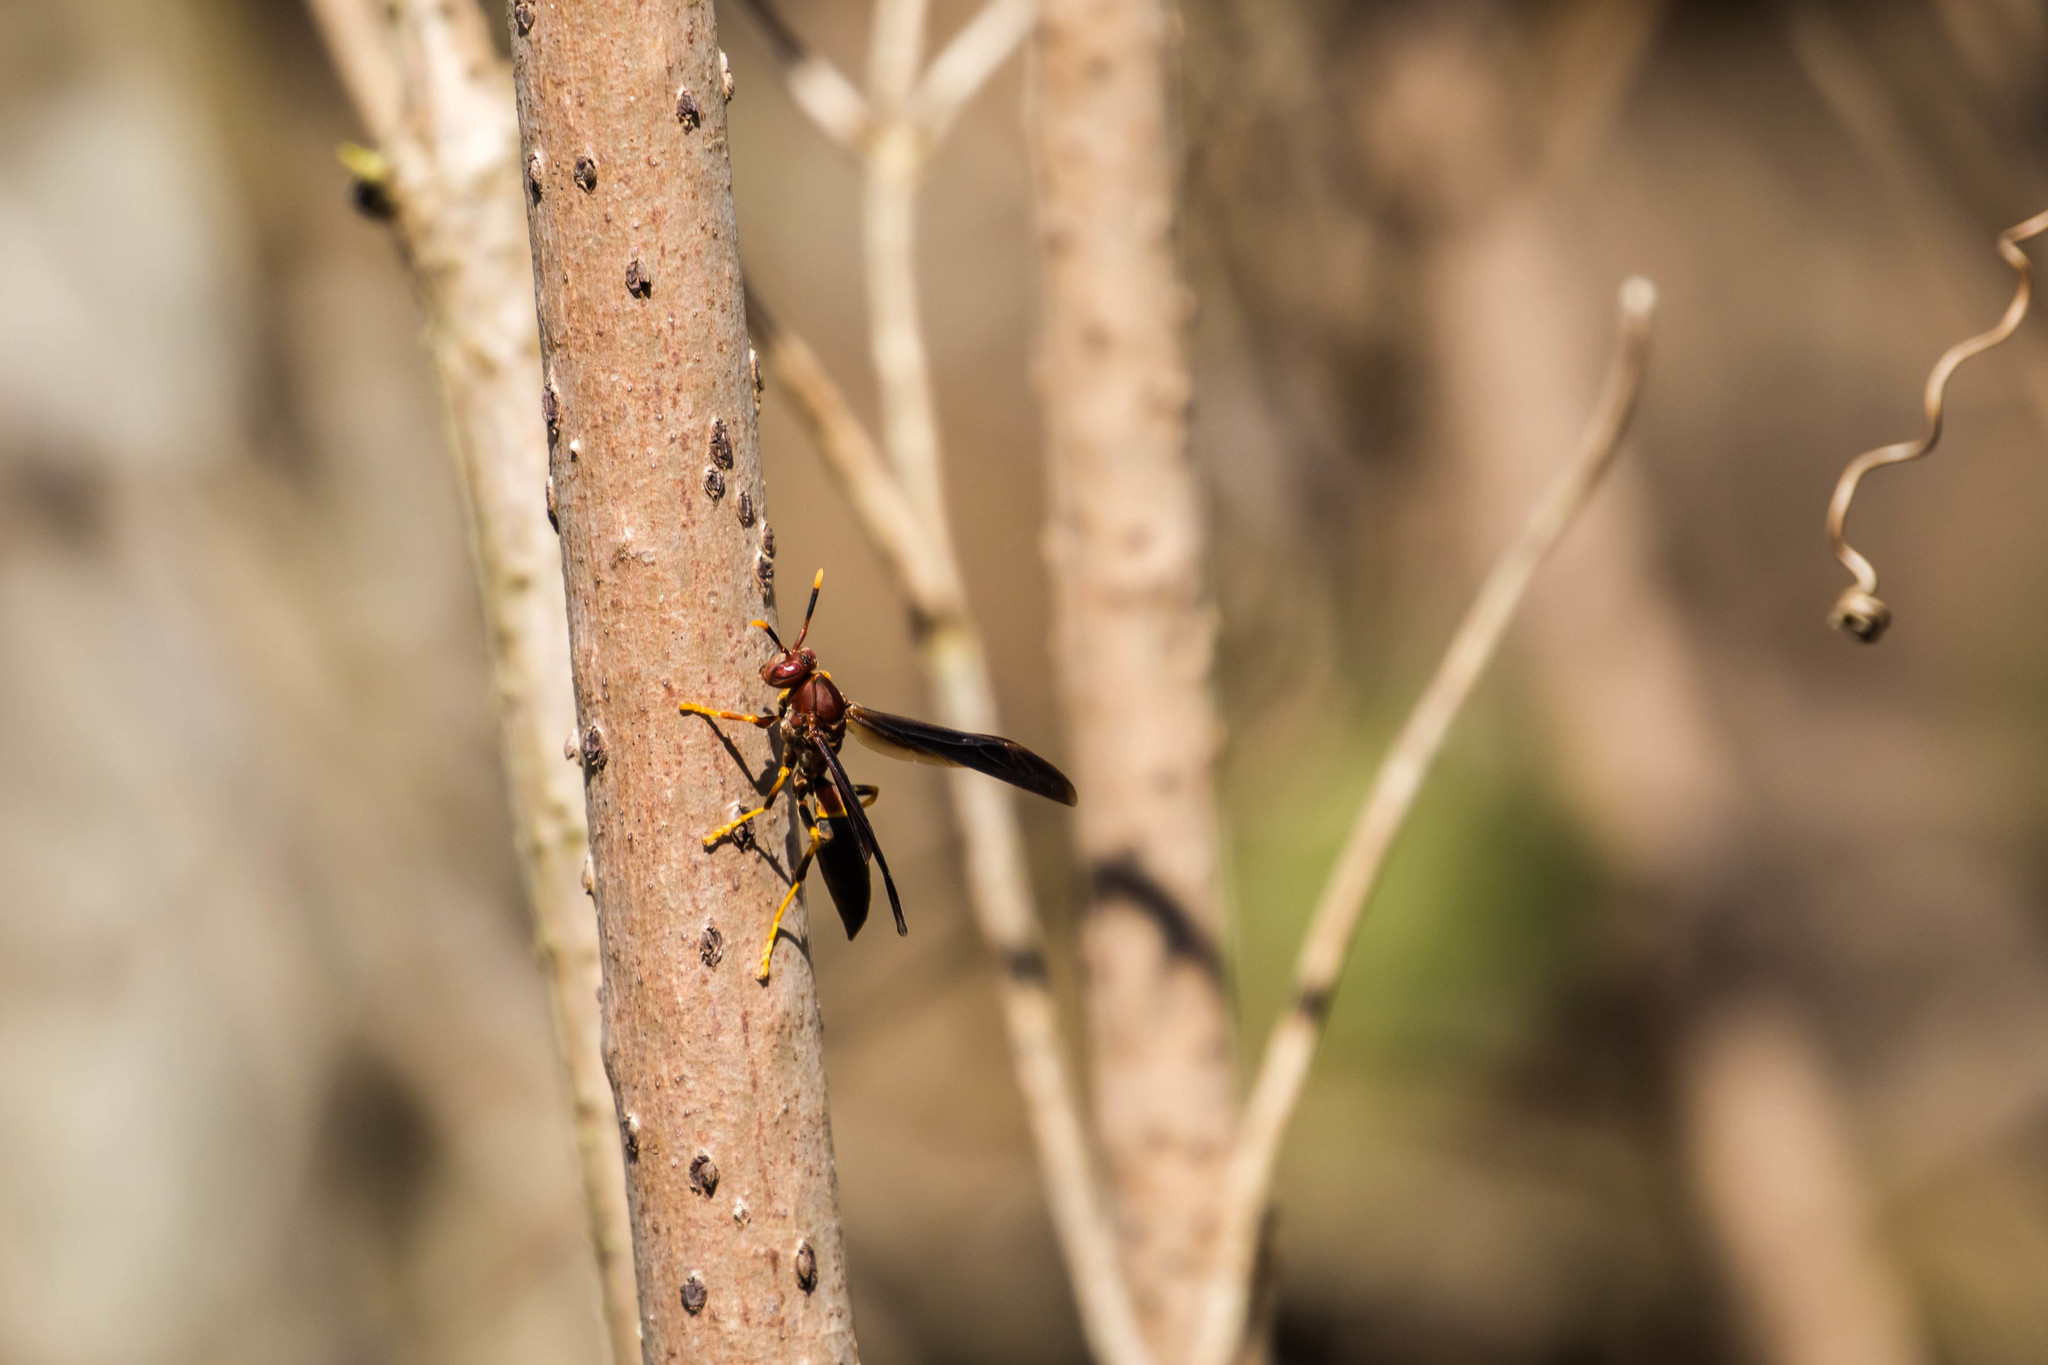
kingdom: Animalia
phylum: Arthropoda
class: Insecta
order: Hymenoptera
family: Eumenidae
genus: Polistes
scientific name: Polistes annularis
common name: Ringed paper wasp
